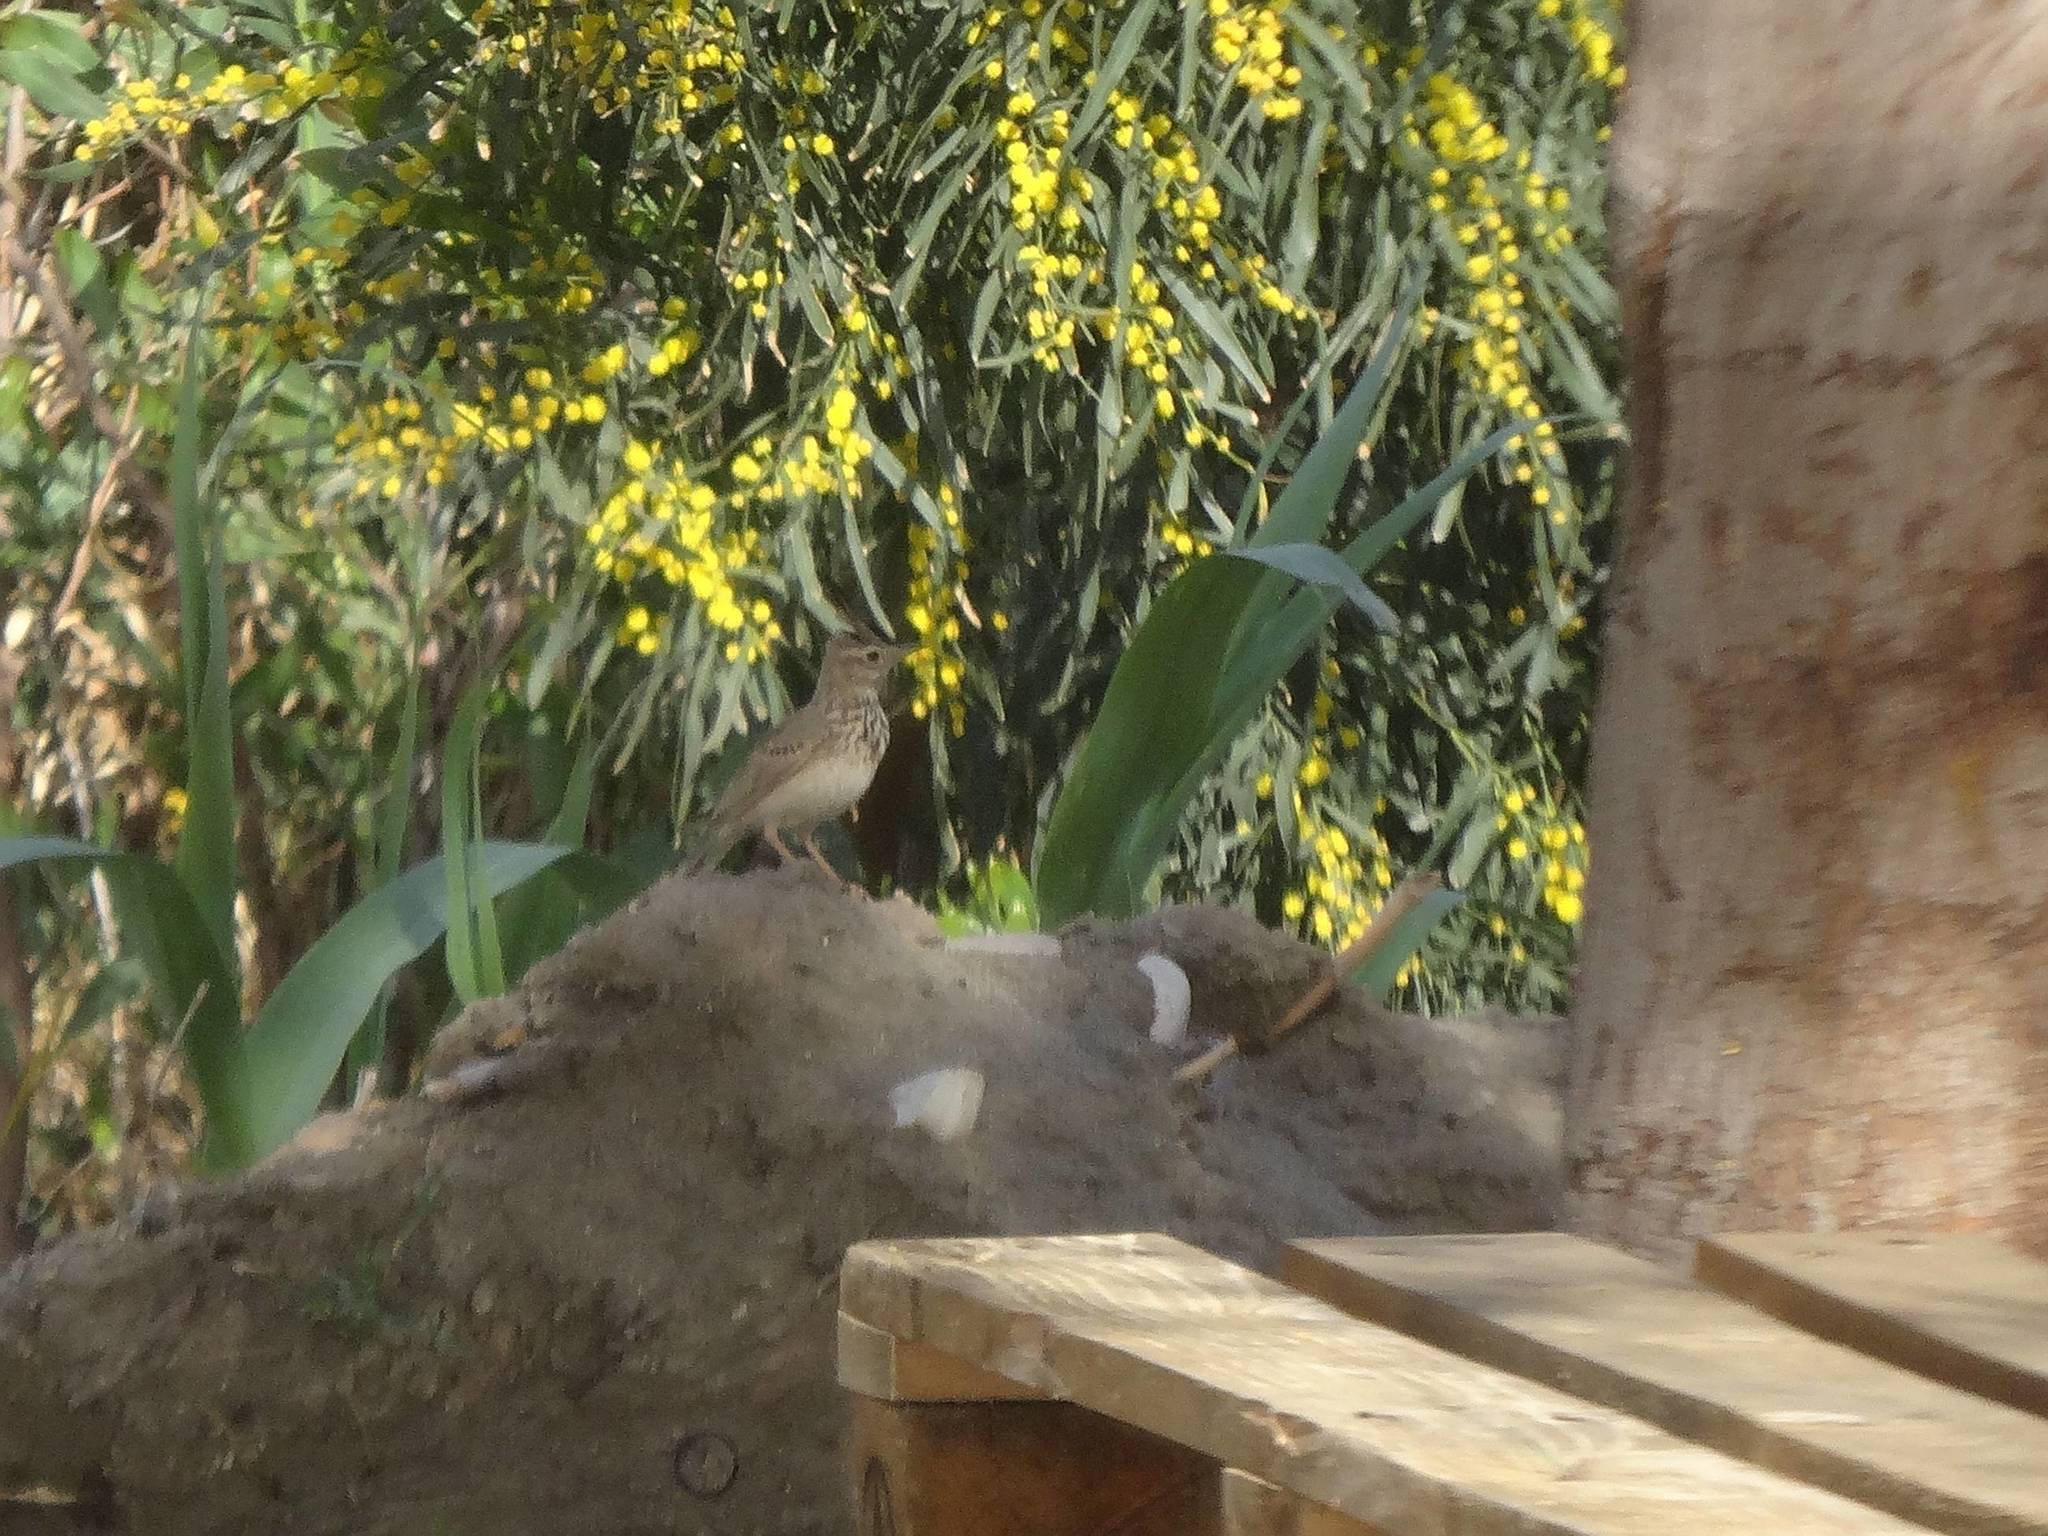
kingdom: Animalia
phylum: Chordata
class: Aves
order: Passeriformes
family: Alaudidae
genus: Galerida
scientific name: Galerida cristata
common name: Crested lark
